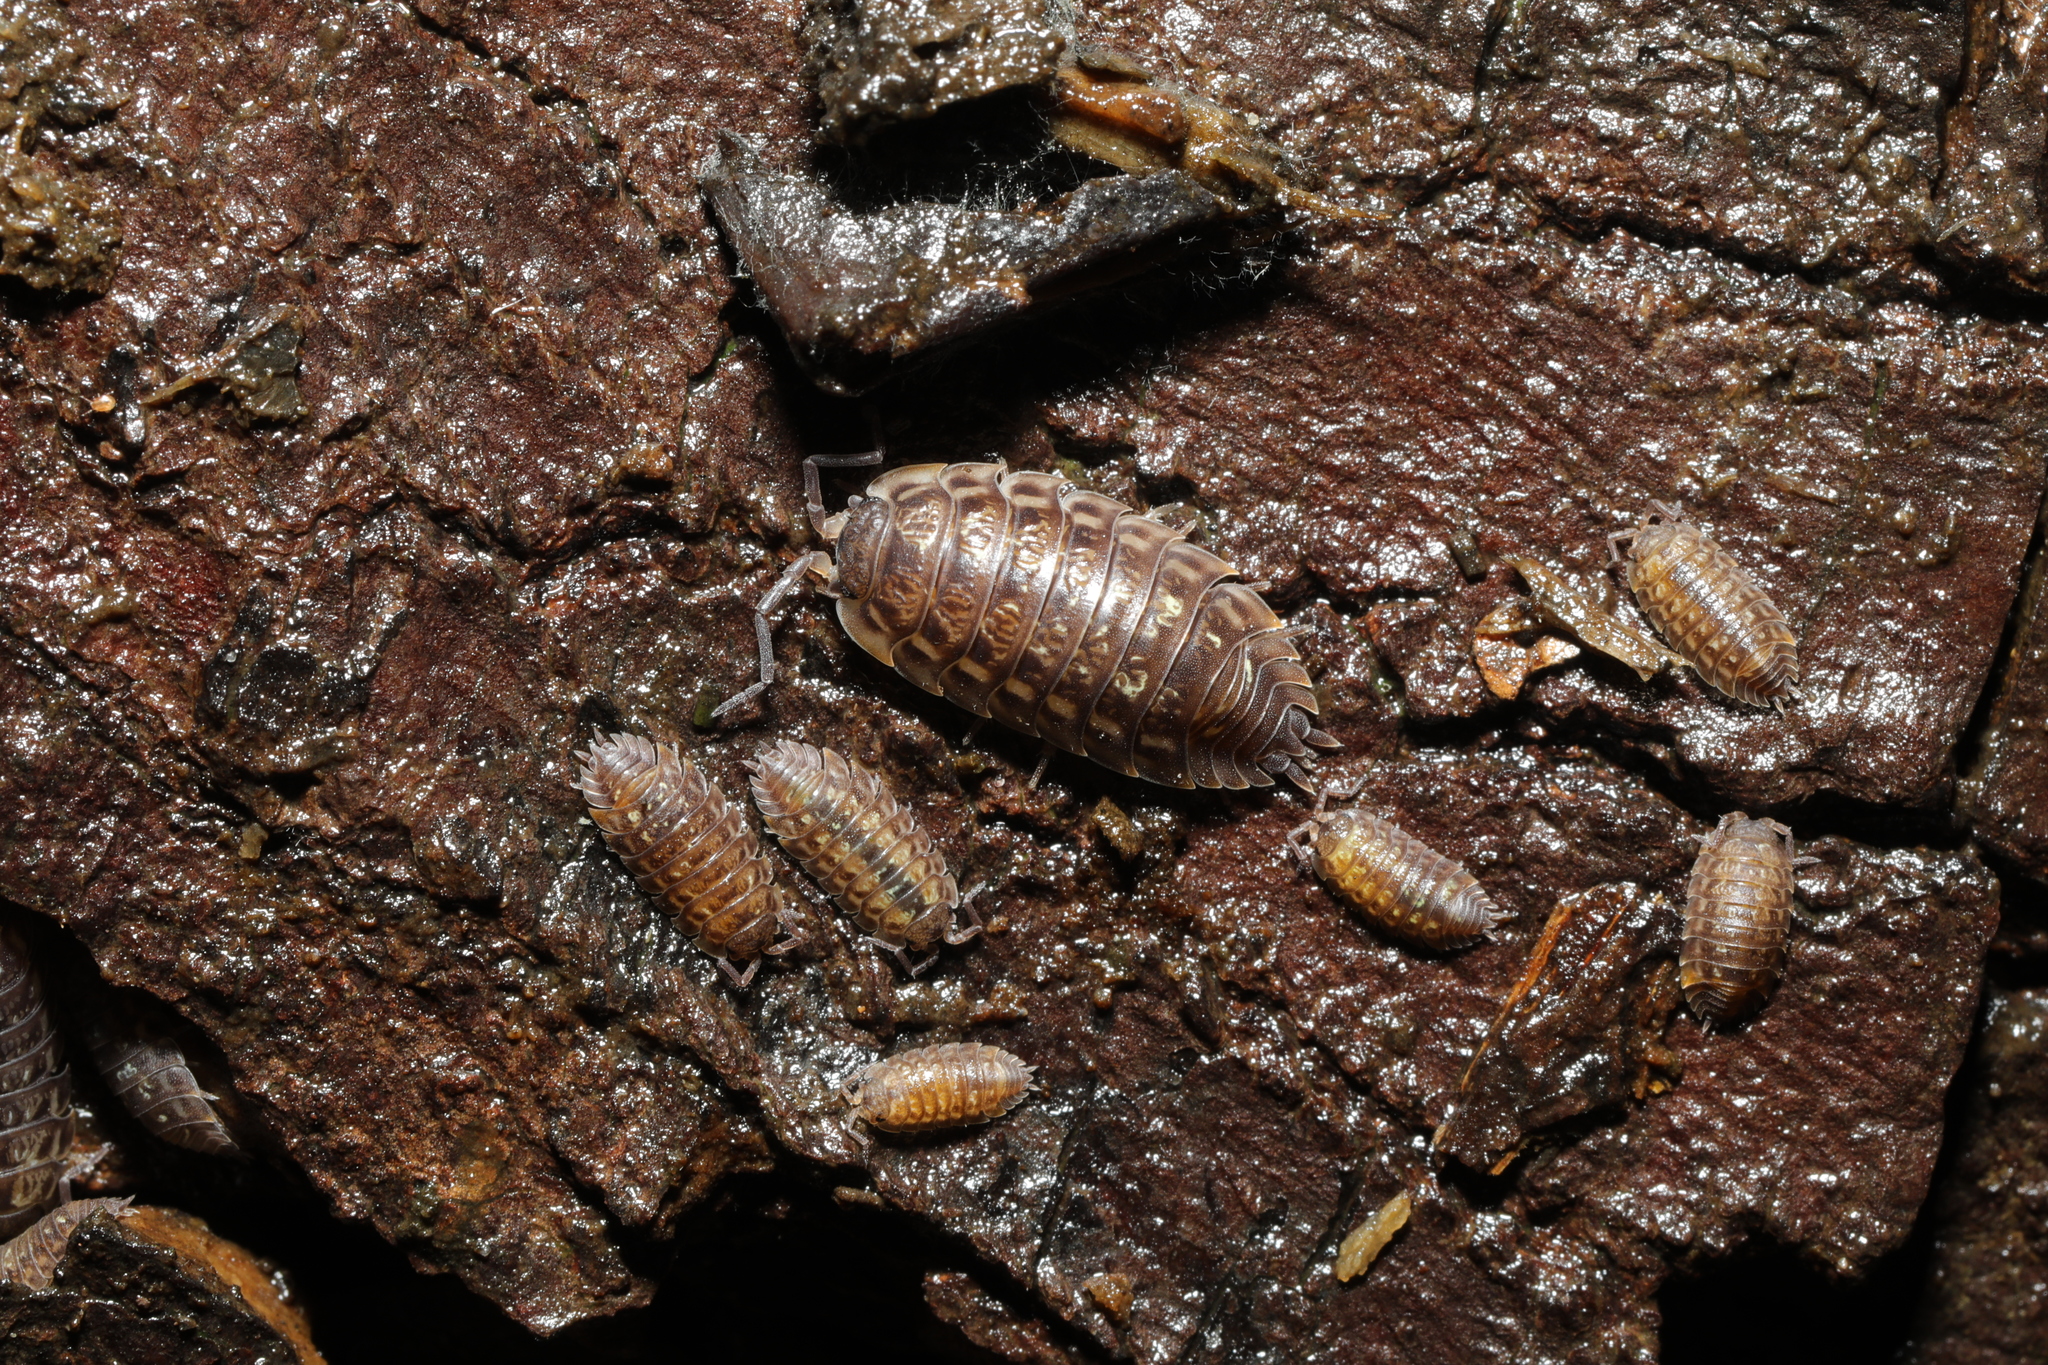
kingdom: Animalia
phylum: Arthropoda
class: Malacostraca
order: Isopoda
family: Oniscidae
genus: Oniscus
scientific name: Oniscus asellus
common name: Common shiny woodlouse
